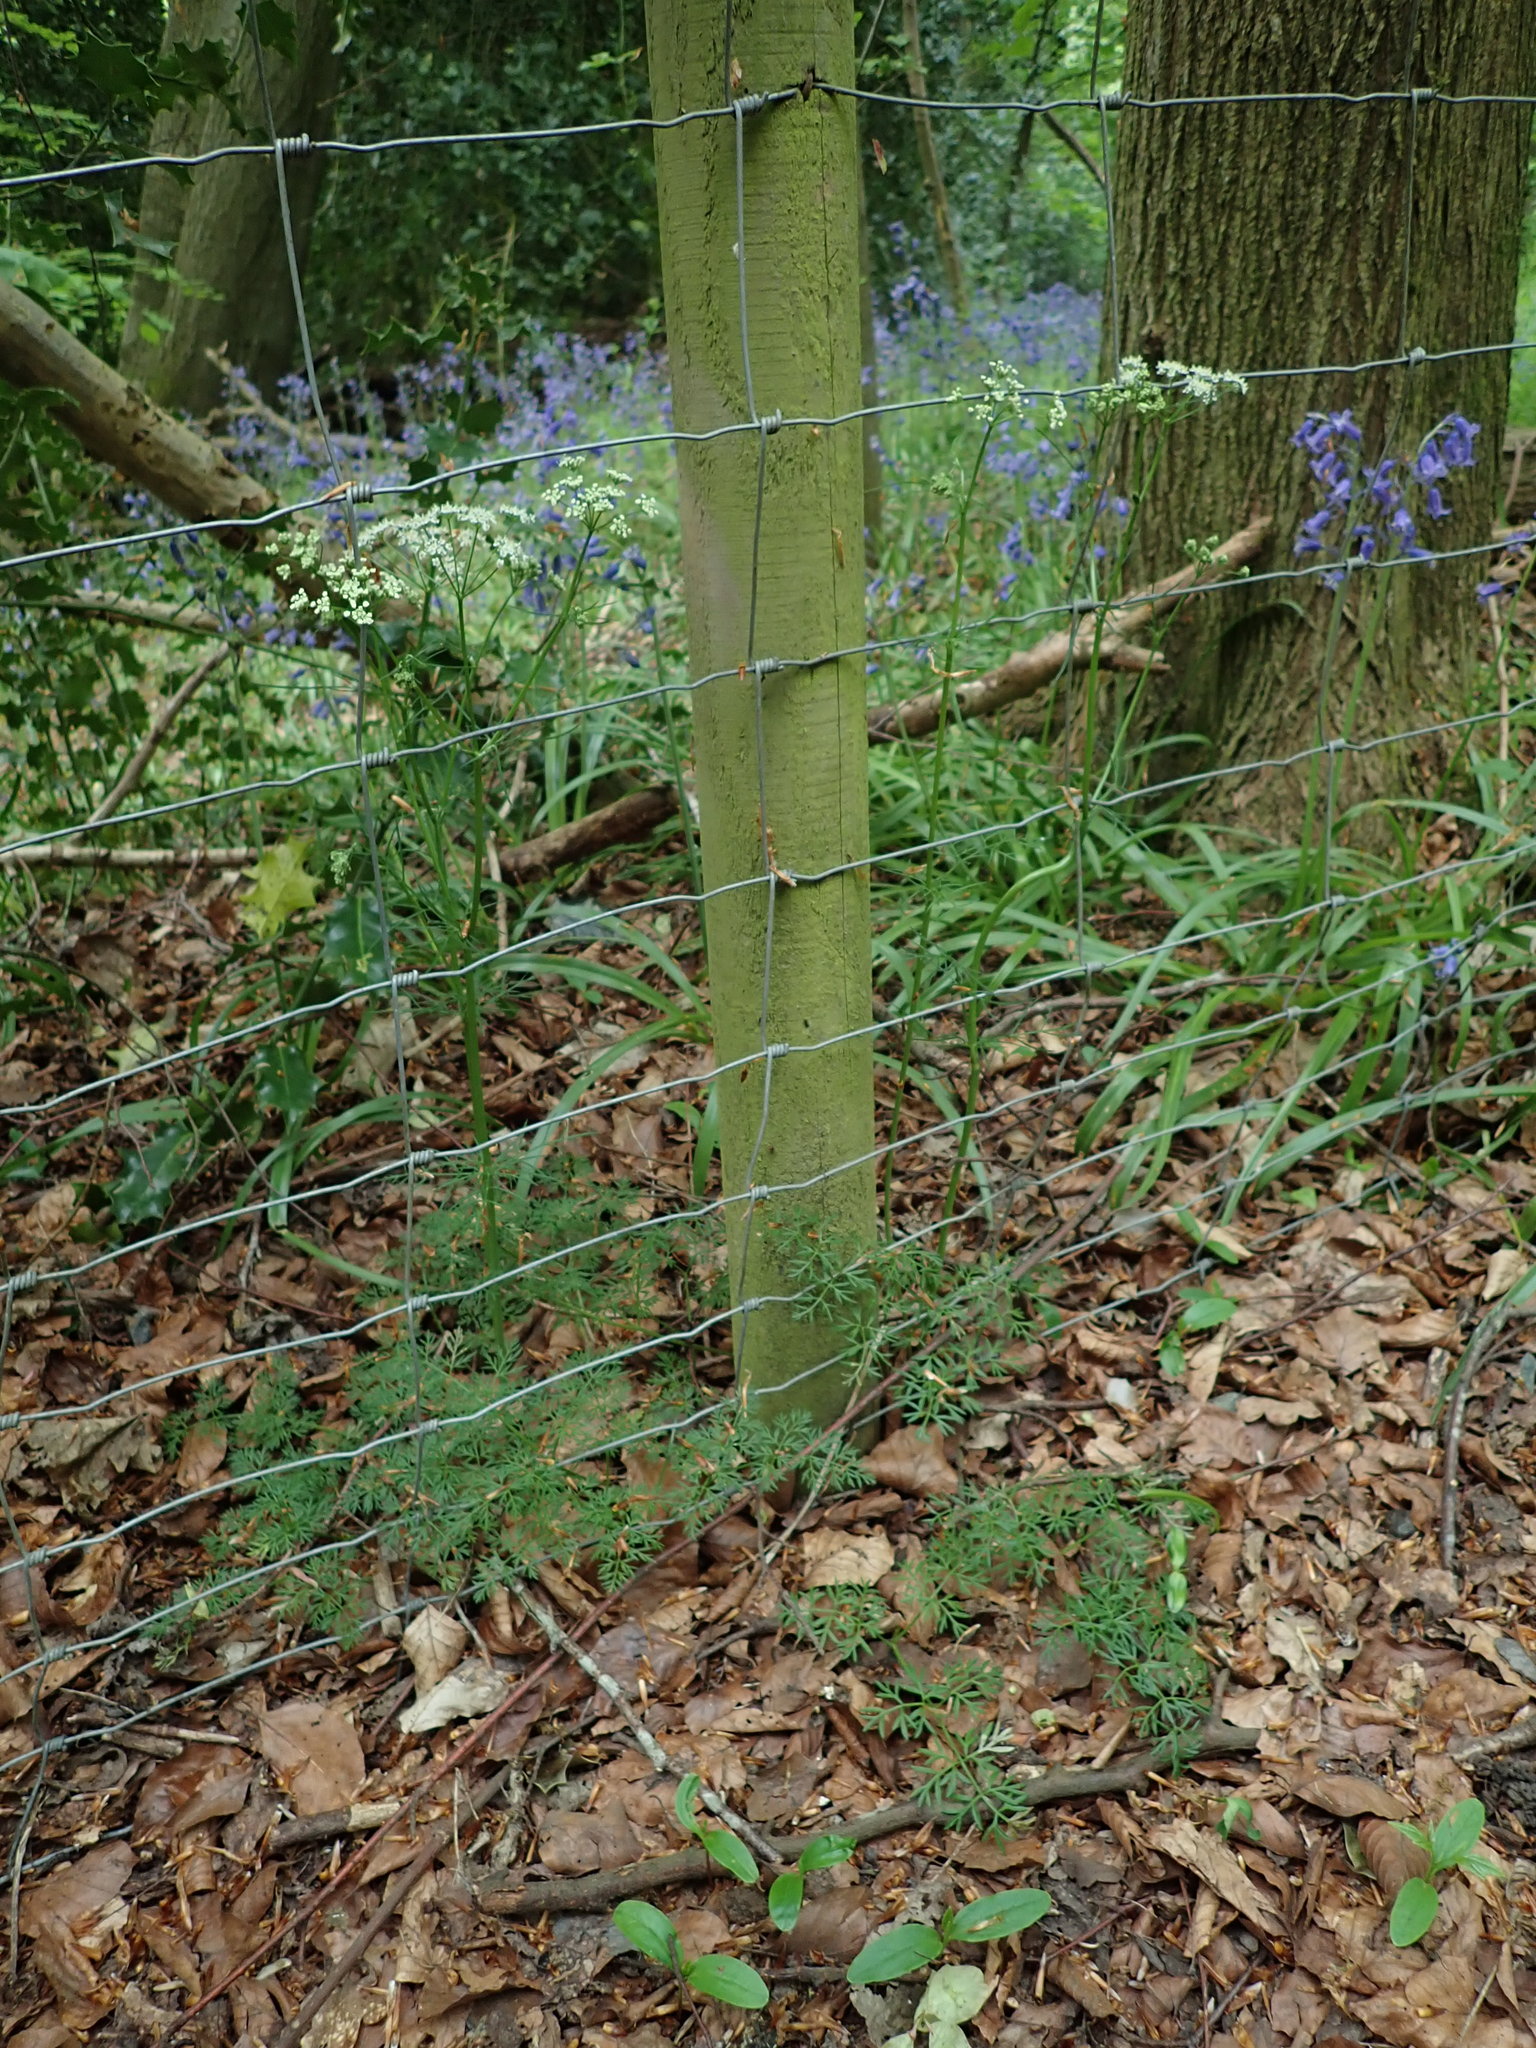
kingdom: Plantae
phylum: Tracheophyta
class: Magnoliopsida
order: Apiales
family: Apiaceae
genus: Conopodium
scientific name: Conopodium majus
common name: Pignut
